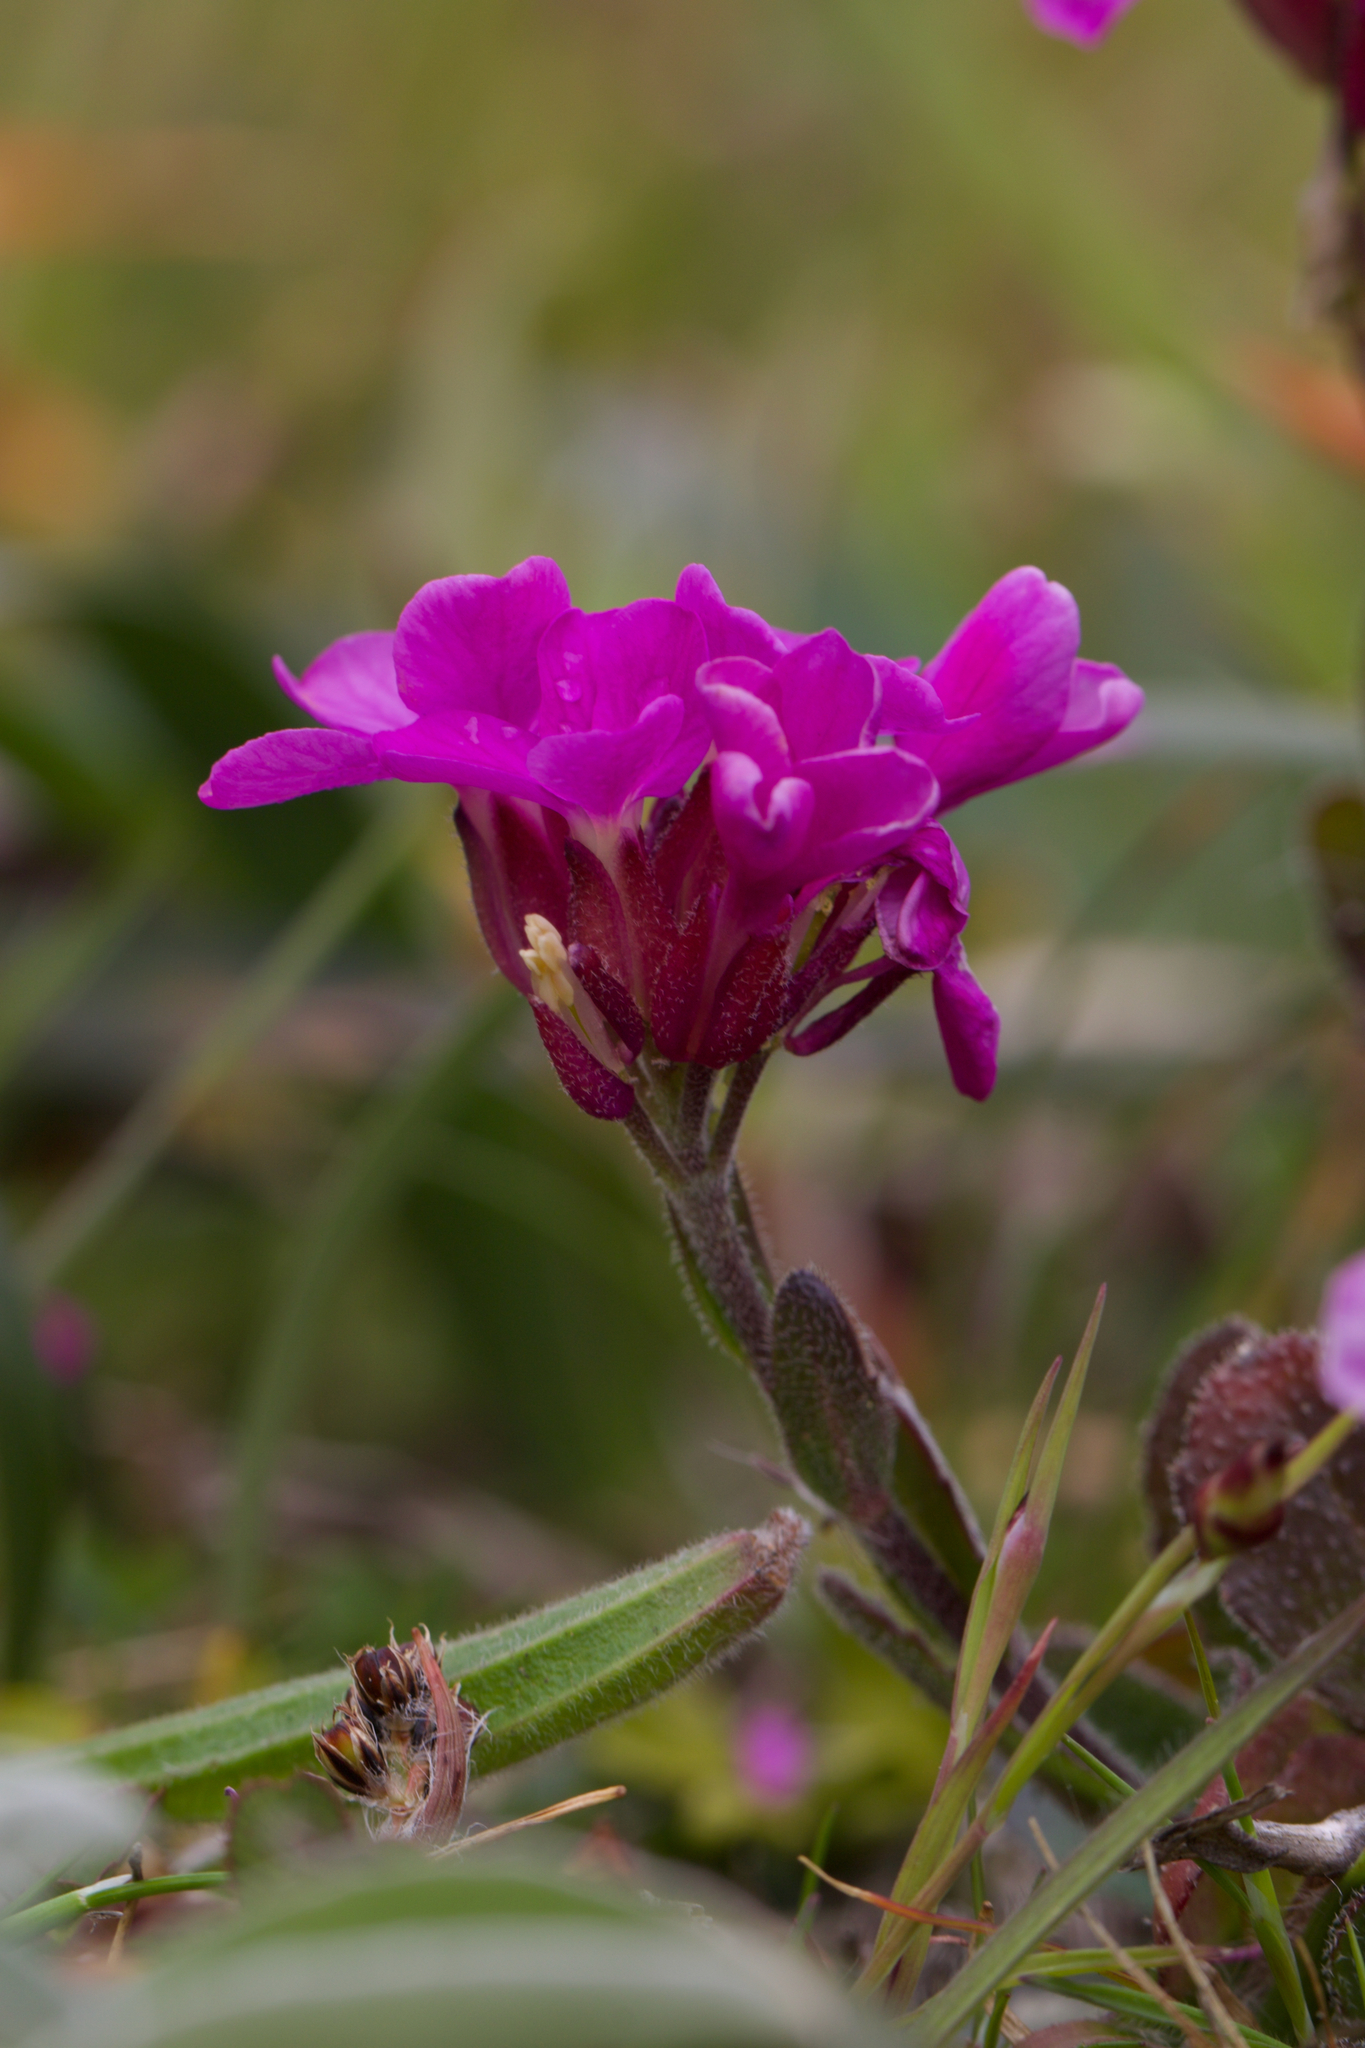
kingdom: Plantae
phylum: Tracheophyta
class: Magnoliopsida
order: Brassicales
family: Brassicaceae
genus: Arabis
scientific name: Arabis blepharophylla
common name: Rose rockcress
